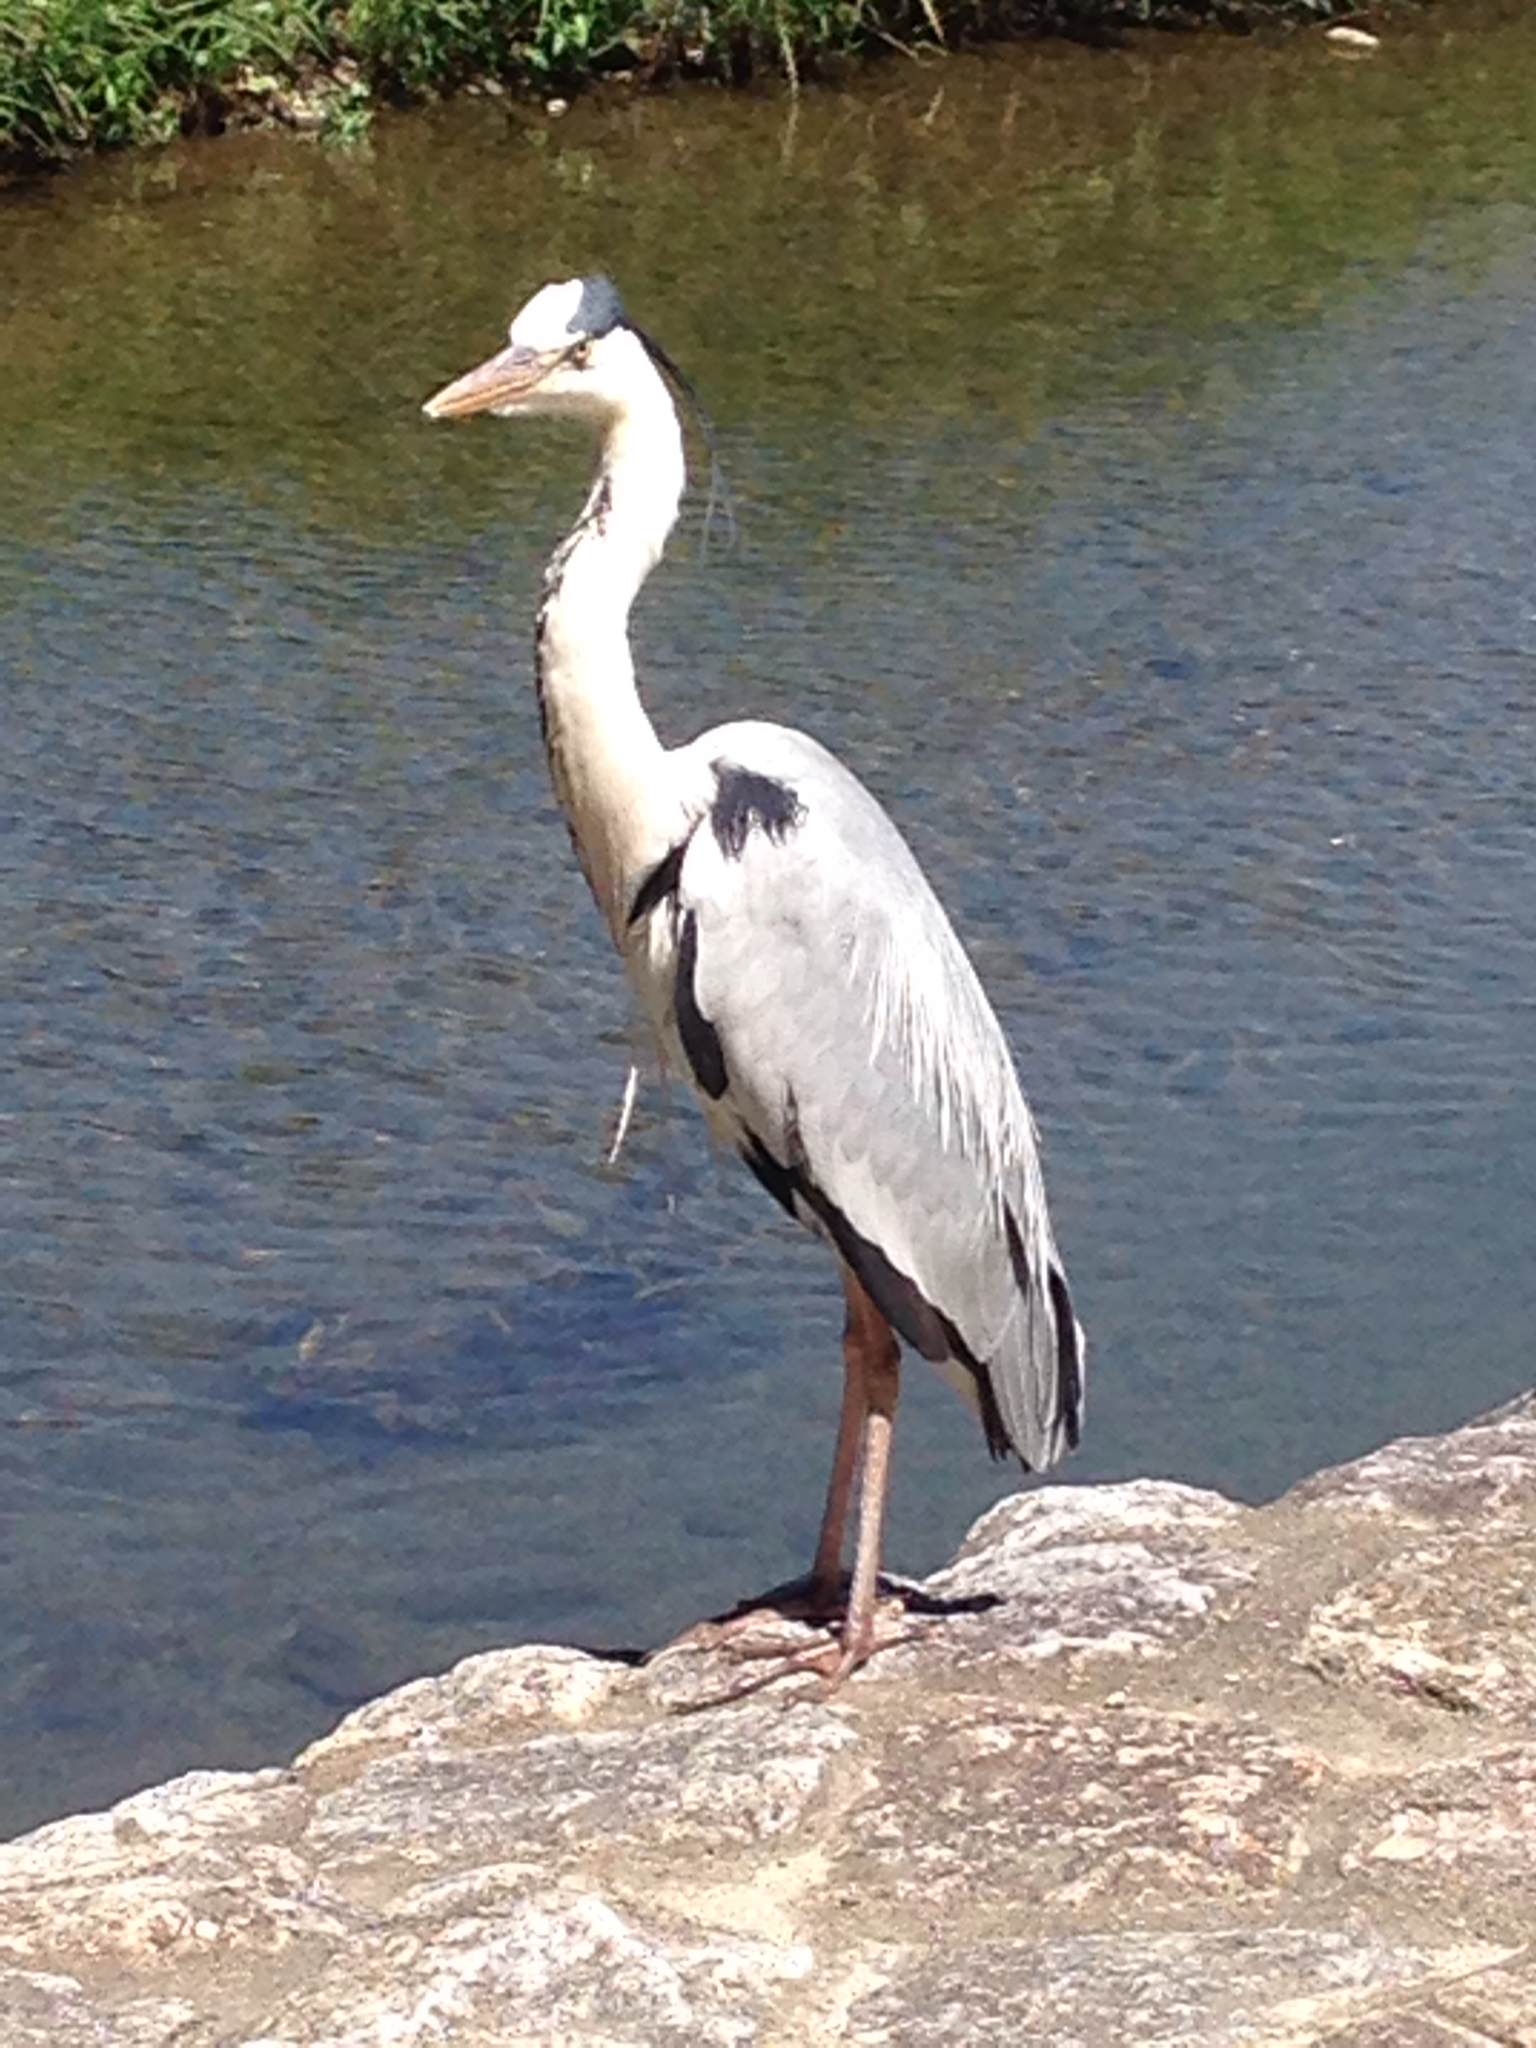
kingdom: Animalia
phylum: Chordata
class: Aves
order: Pelecaniformes
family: Ardeidae
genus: Ardea
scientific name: Ardea cinerea
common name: Grey heron
